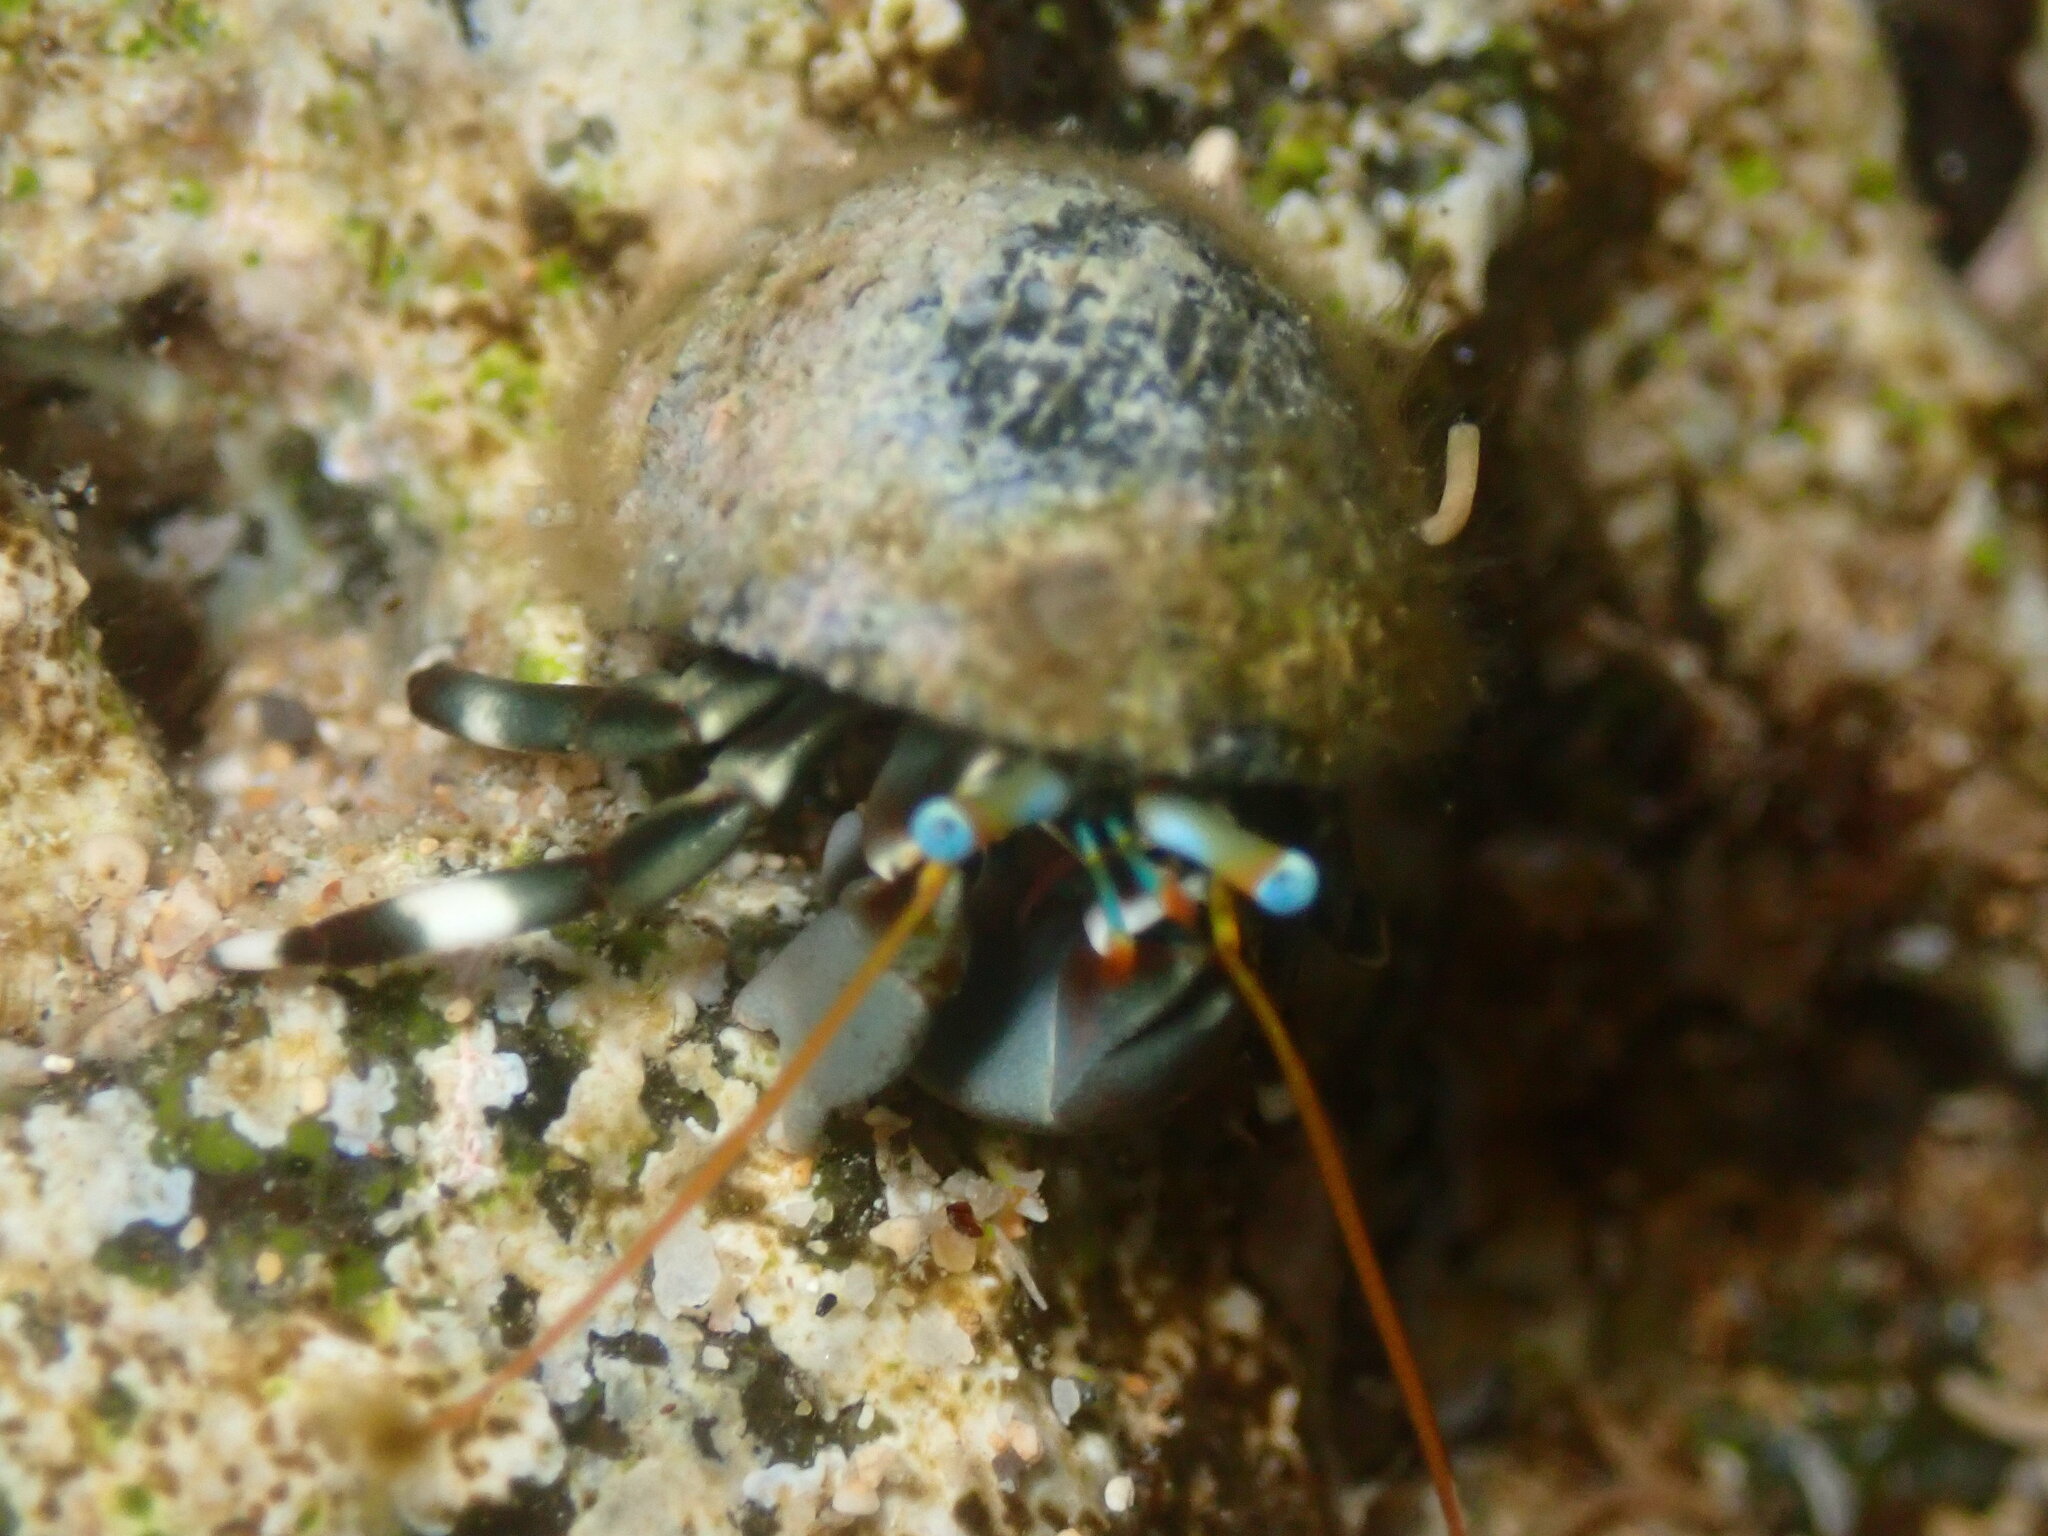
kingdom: Animalia
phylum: Arthropoda
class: Malacostraca
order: Decapoda
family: Diogenidae
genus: Calcinus
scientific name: Calcinus seurati
